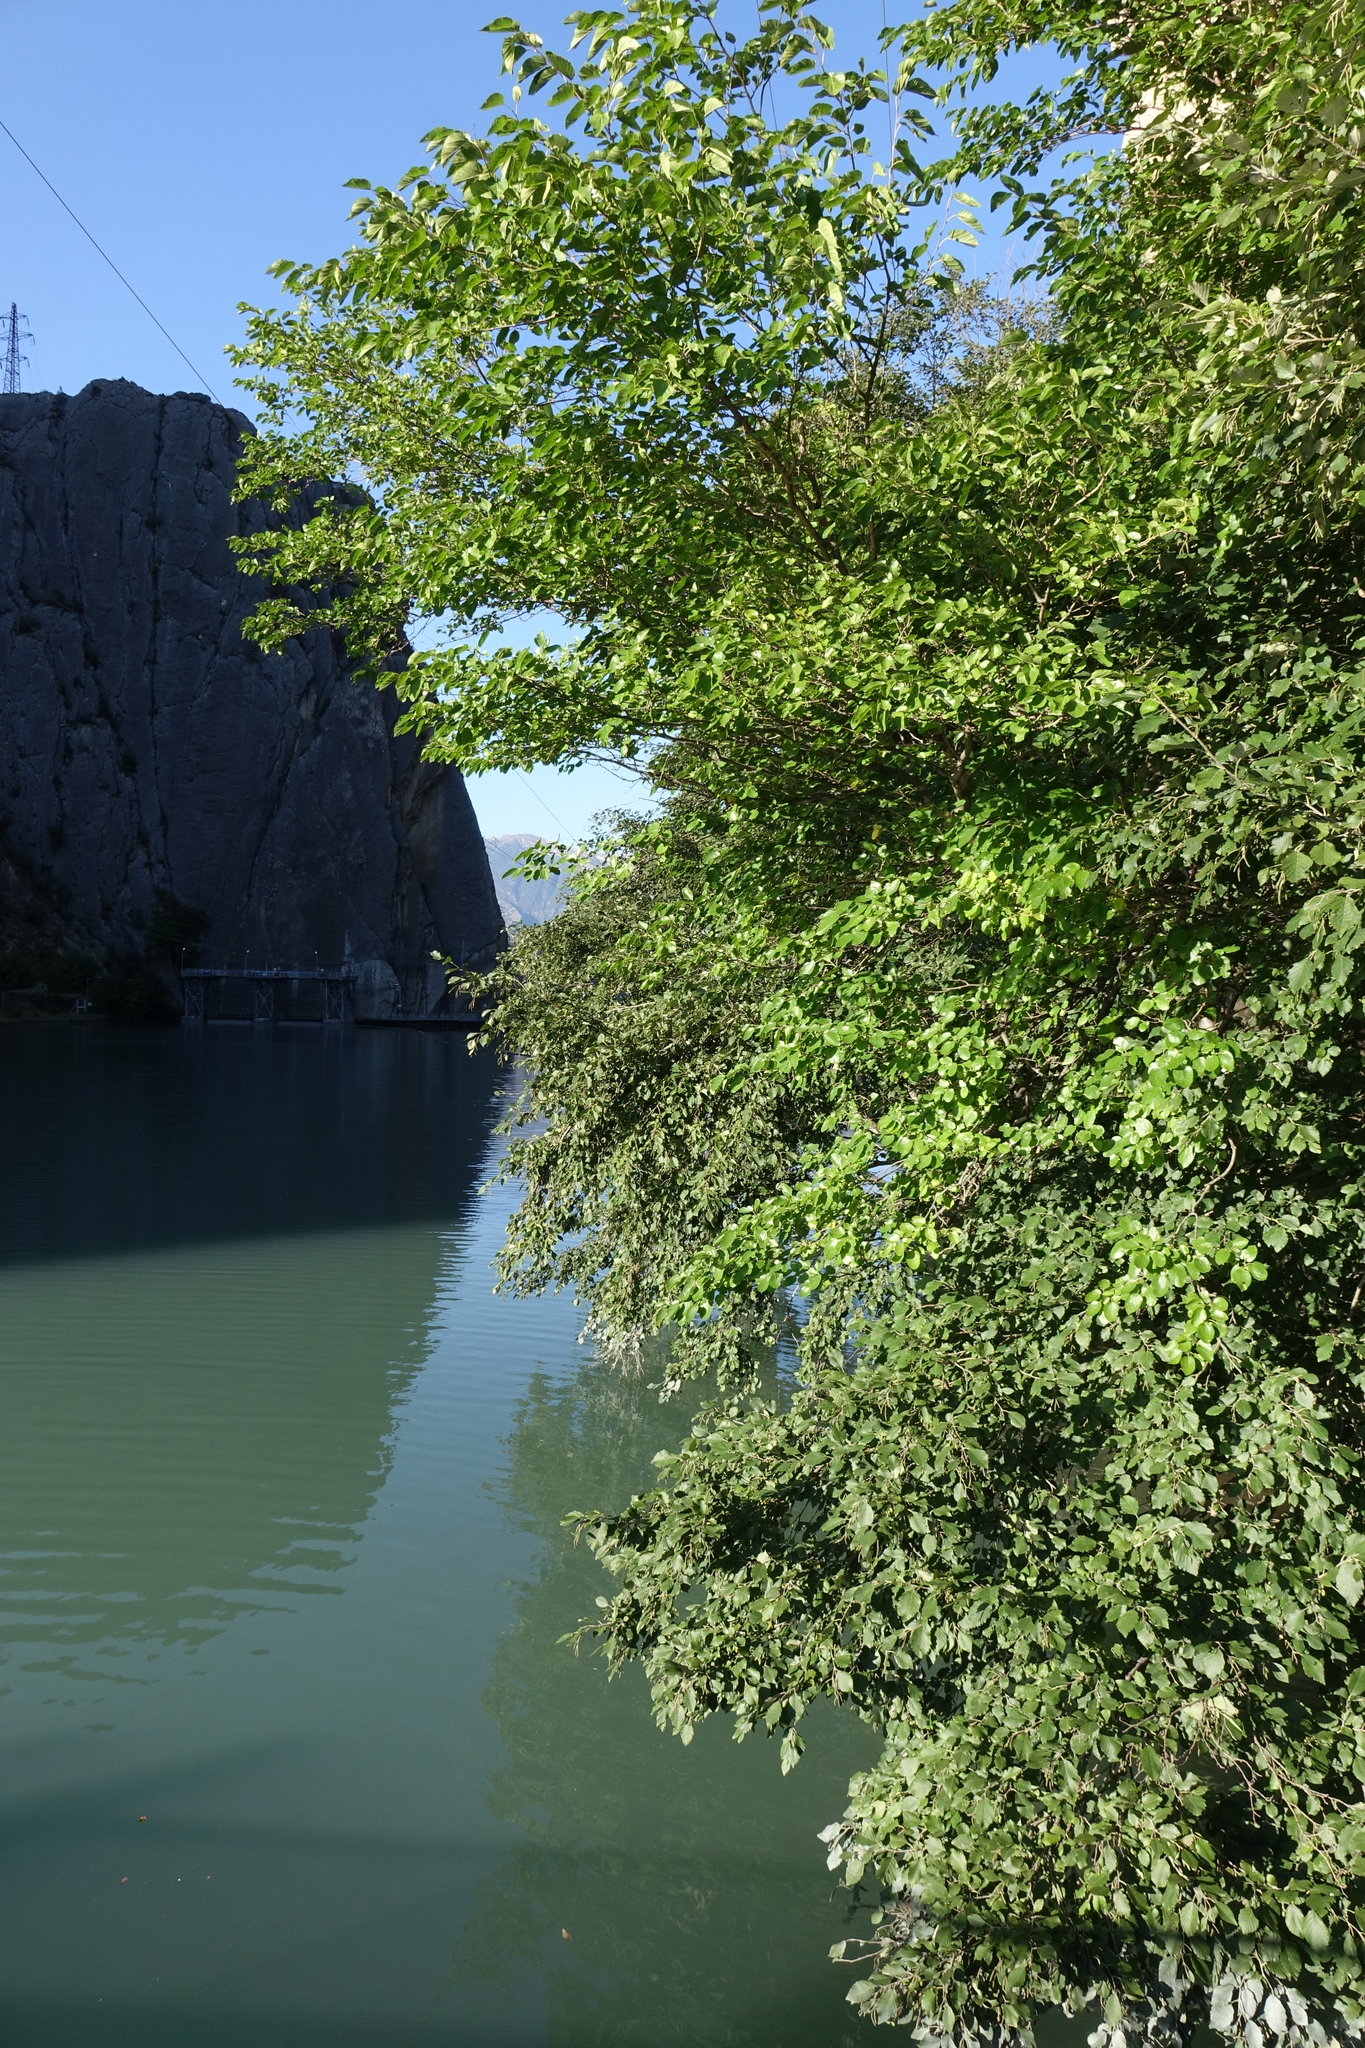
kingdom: Plantae
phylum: Tracheophyta
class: Magnoliopsida
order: Fagales
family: Betulaceae
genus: Alnus
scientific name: Alnus incana
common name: Grey alder
